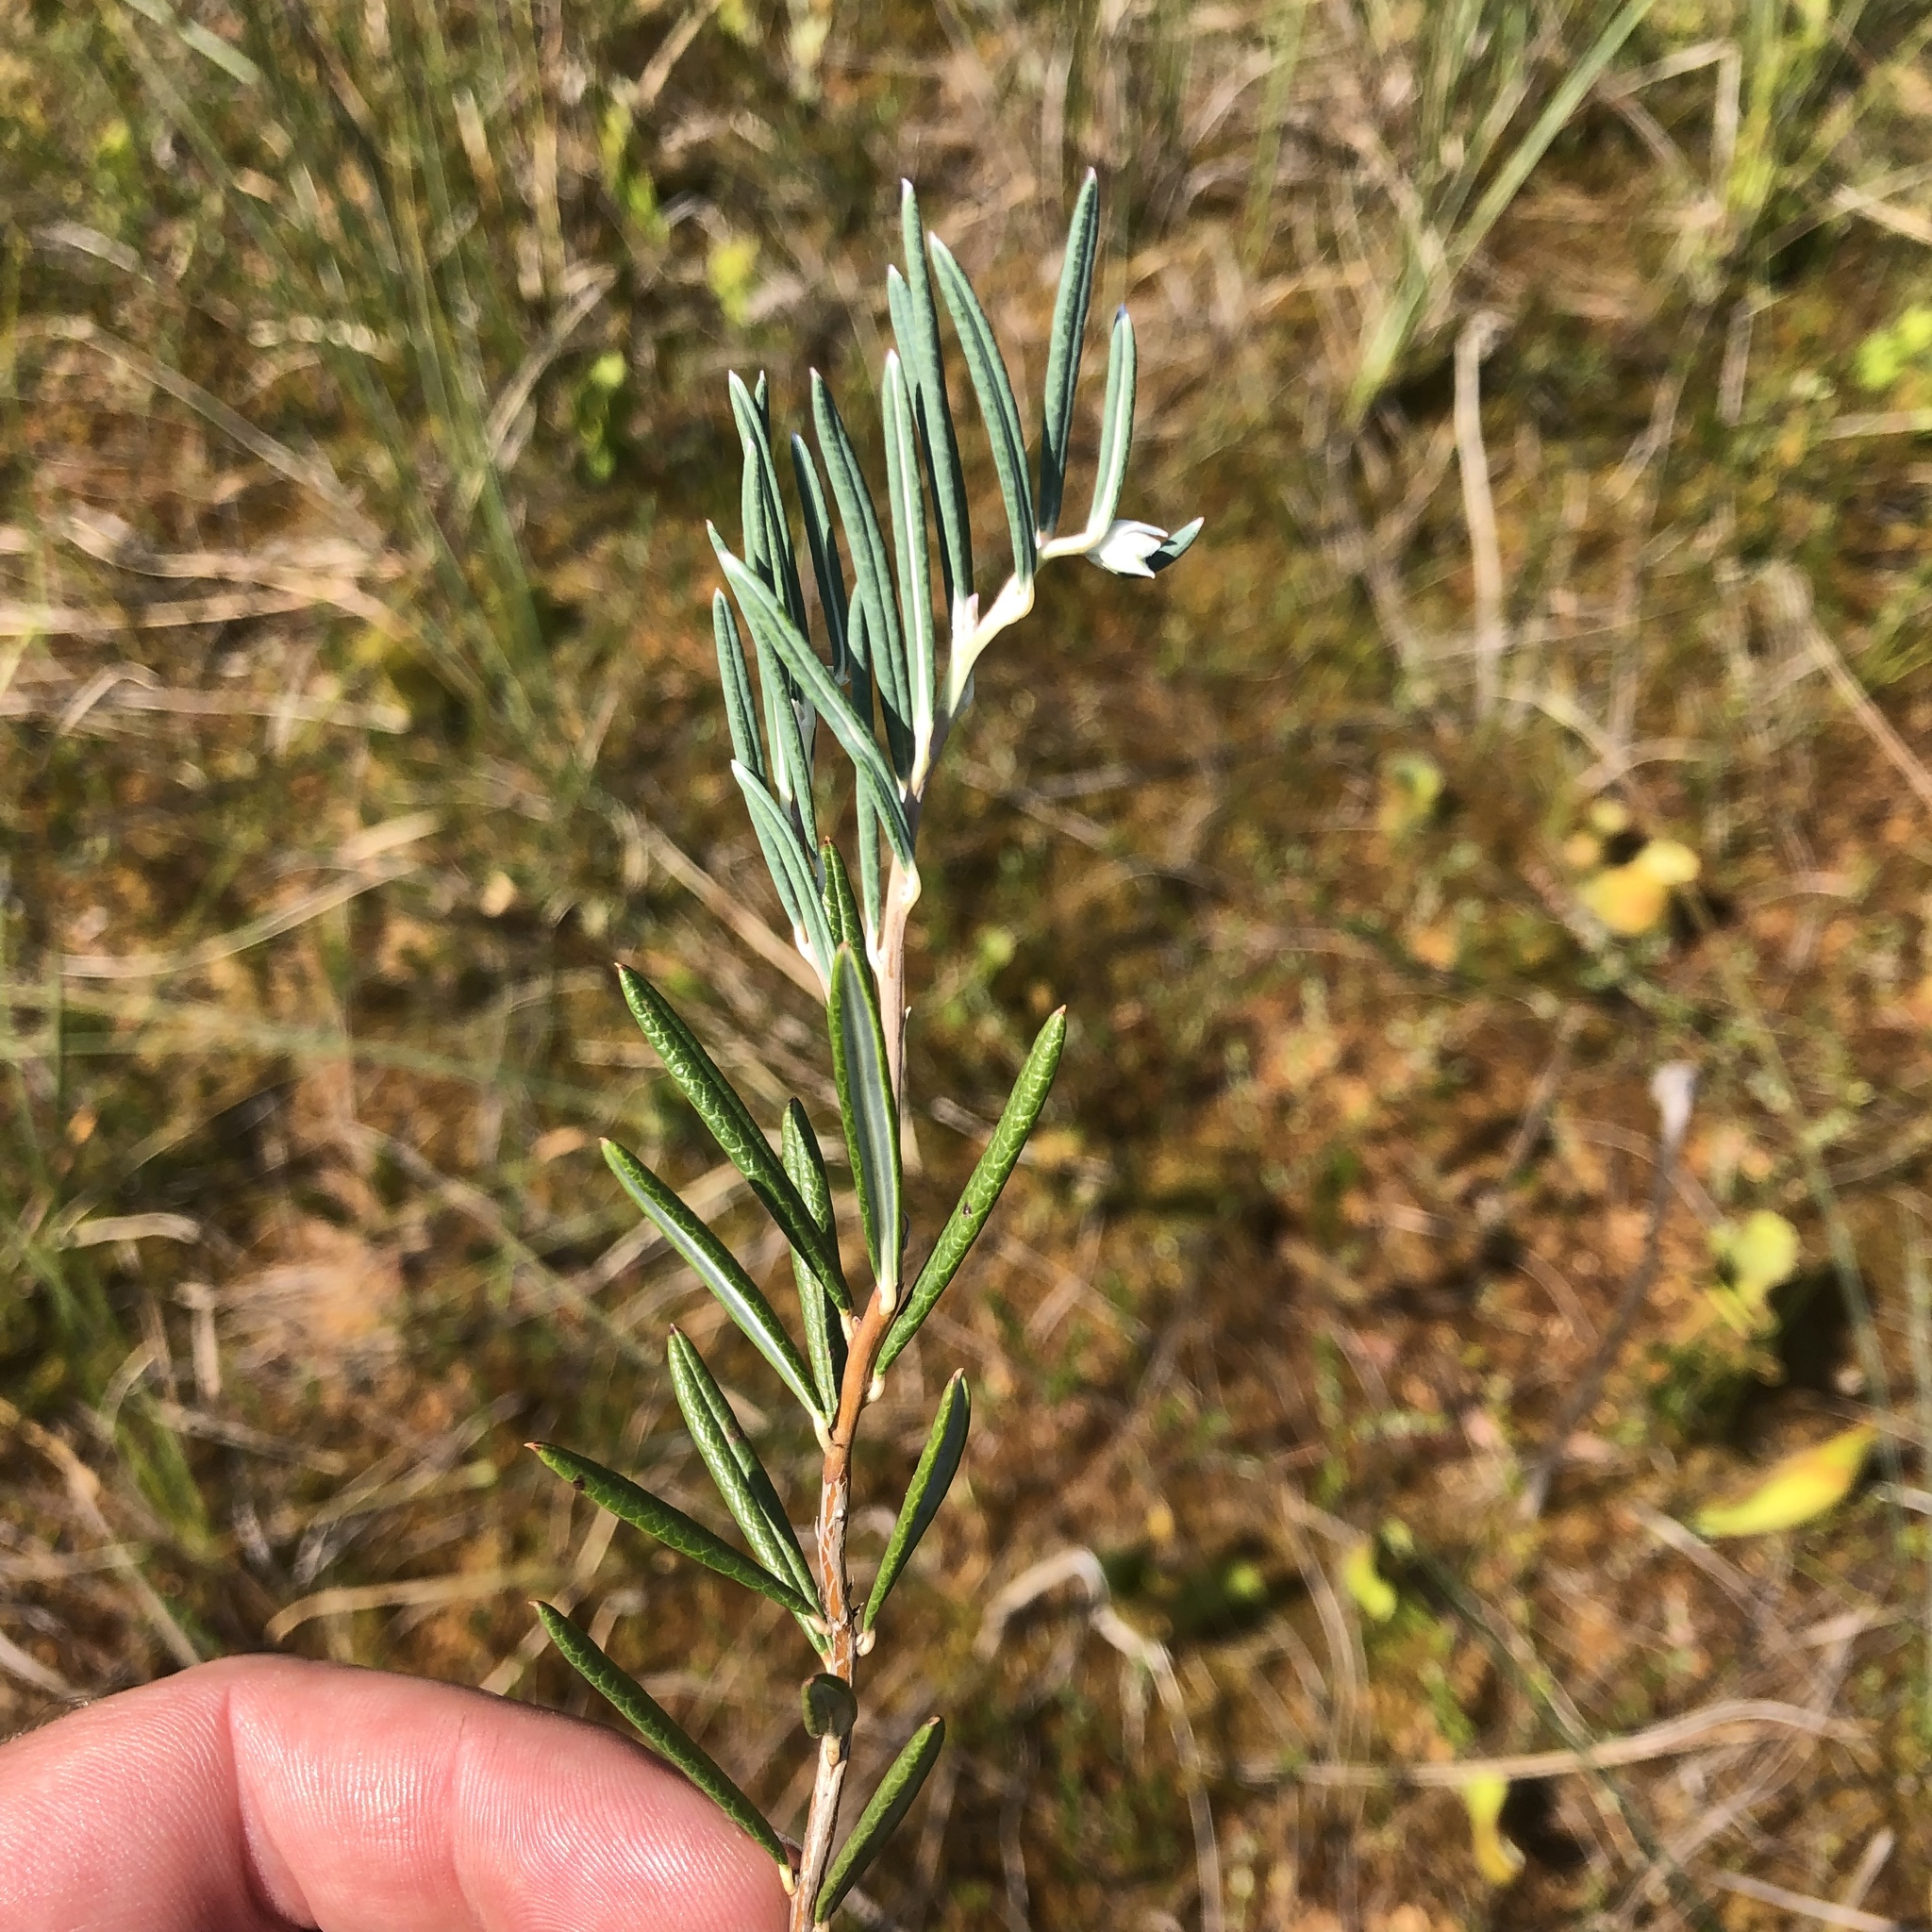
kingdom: Plantae
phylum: Tracheophyta
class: Magnoliopsida
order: Ericales
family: Ericaceae
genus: Andromeda
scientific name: Andromeda polifolia
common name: Bog-rosemary
